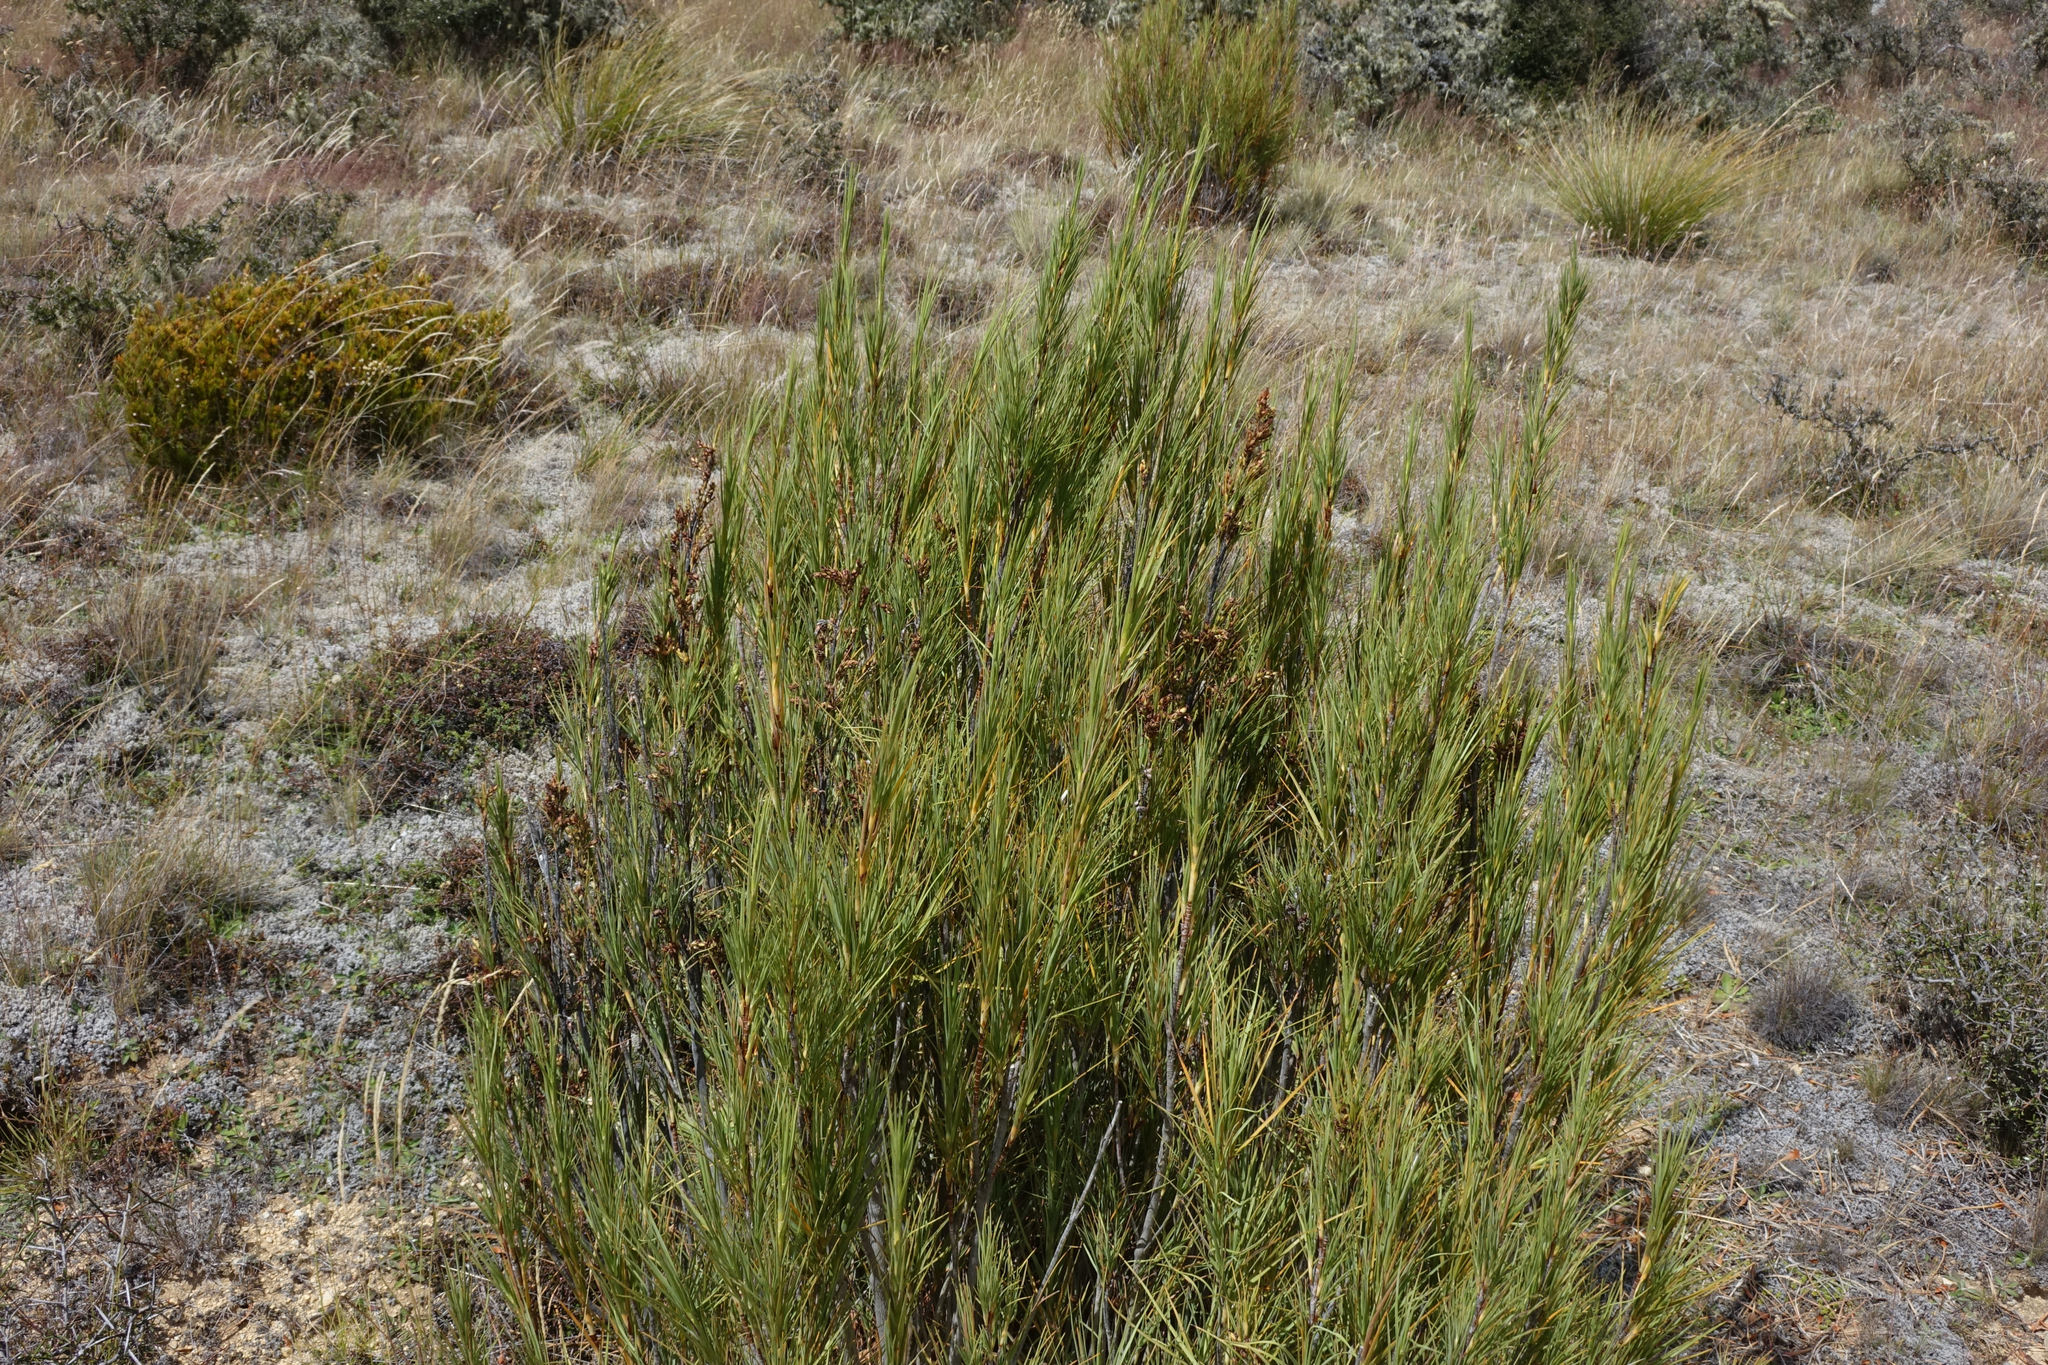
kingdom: Plantae
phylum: Tracheophyta
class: Magnoliopsida
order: Ericales
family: Ericaceae
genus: Dracophyllum
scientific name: Dracophyllum longifolium
